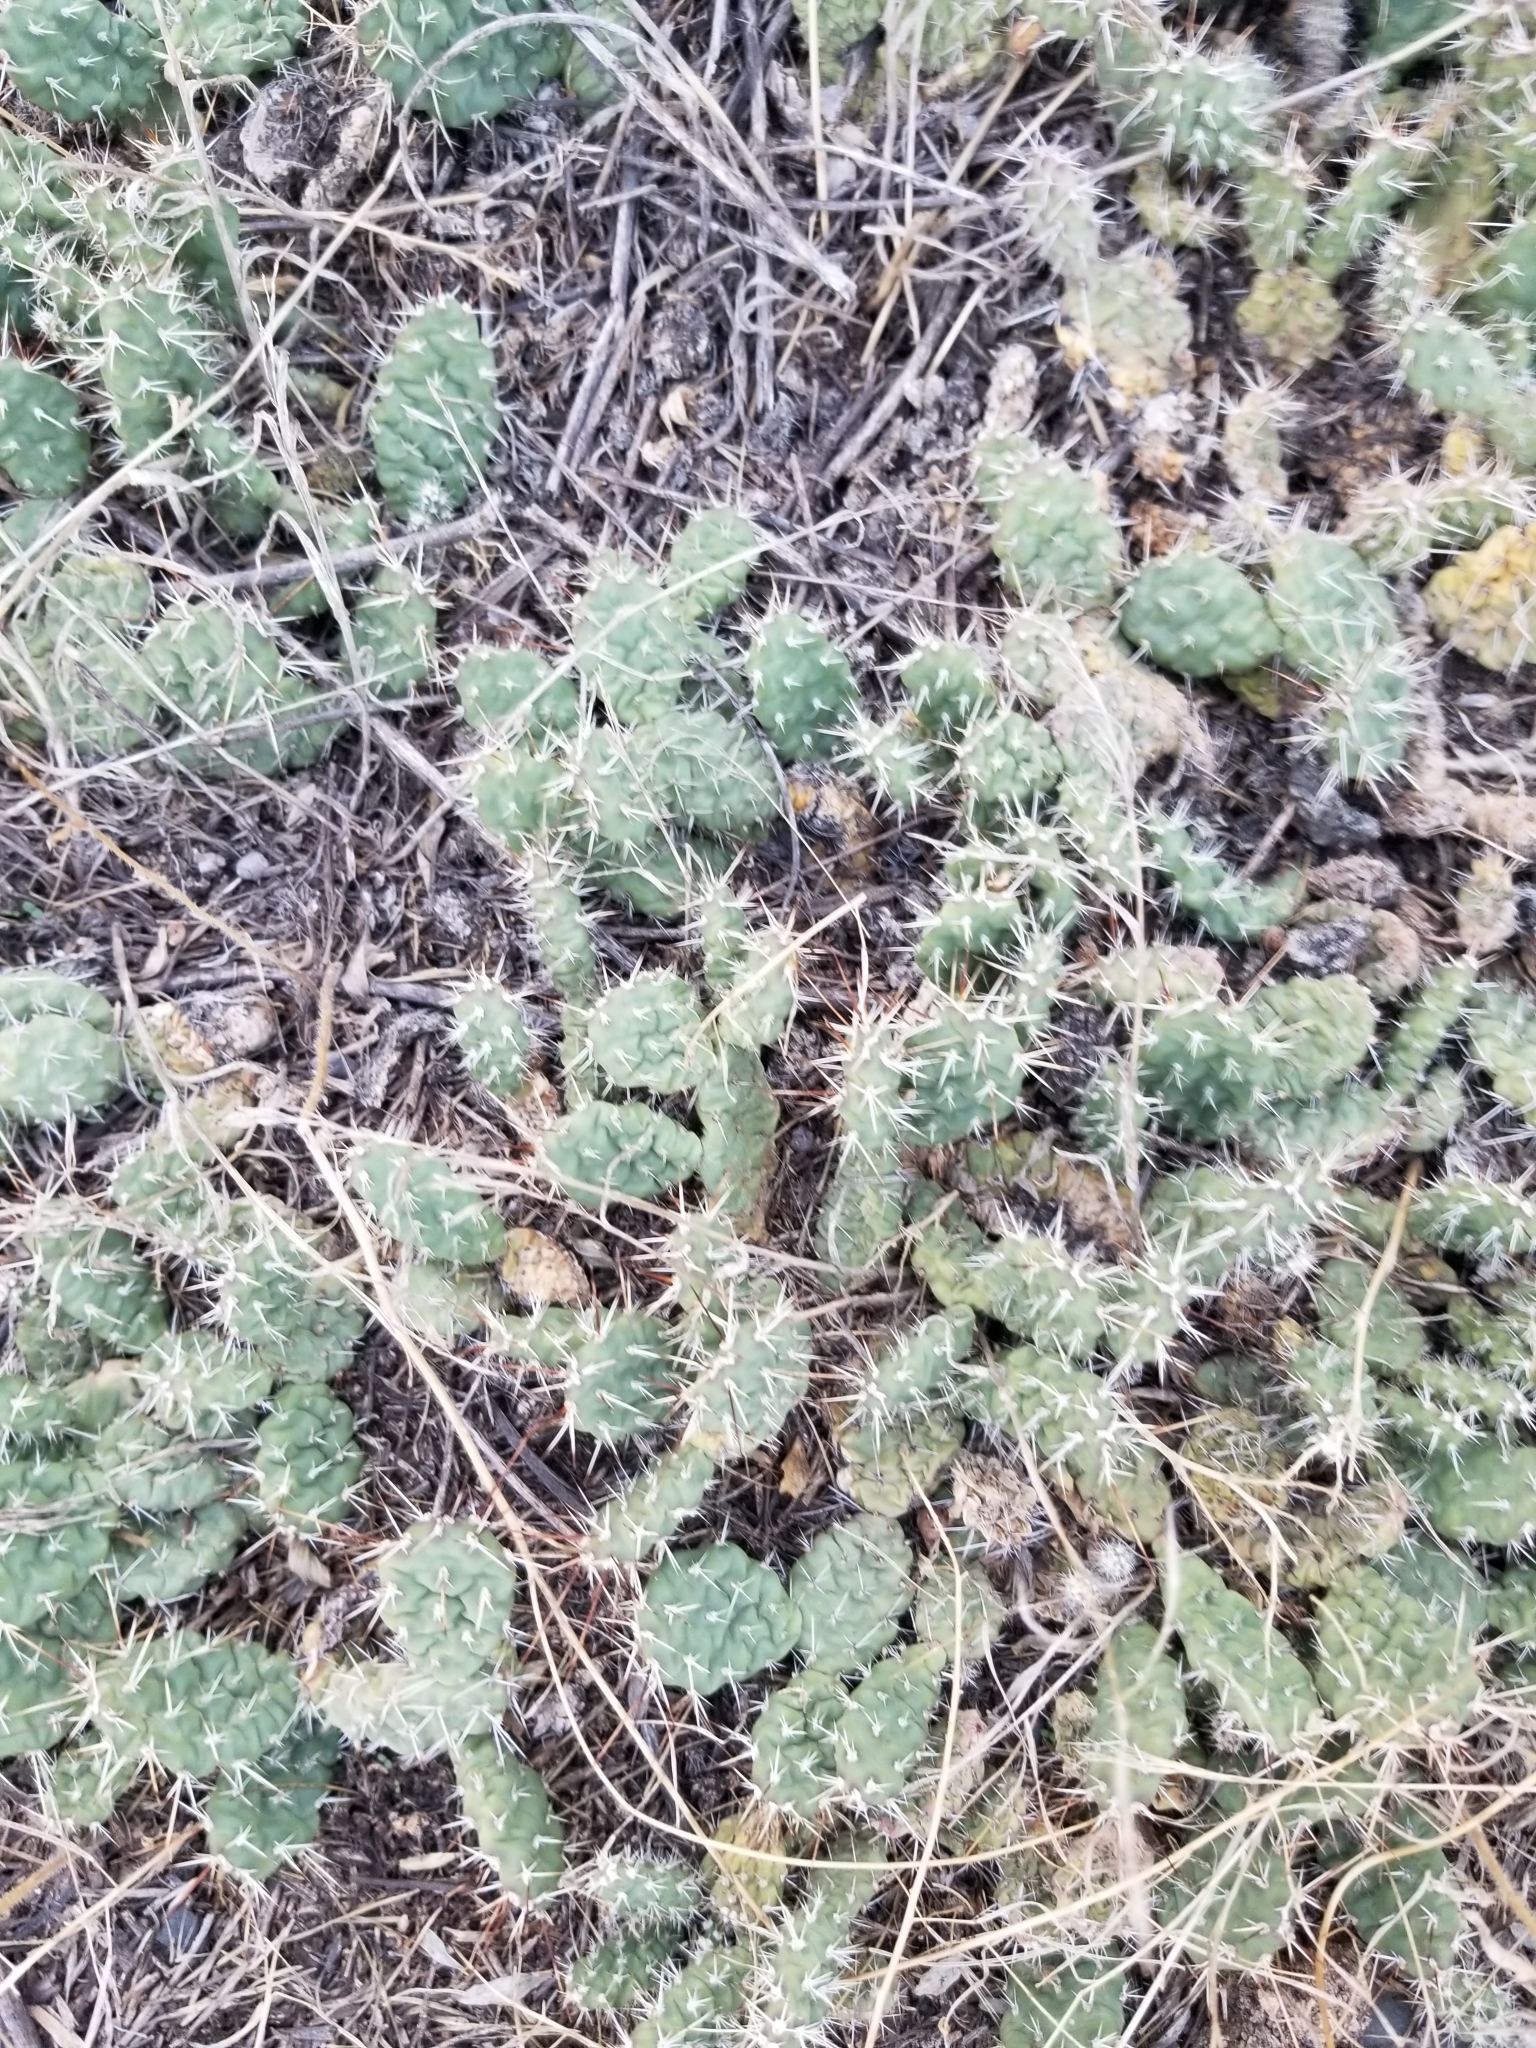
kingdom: Plantae
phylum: Tracheophyta
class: Magnoliopsida
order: Caryophyllales
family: Cactaceae
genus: Opuntia
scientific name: Opuntia fragilis
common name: Brittle cactus
